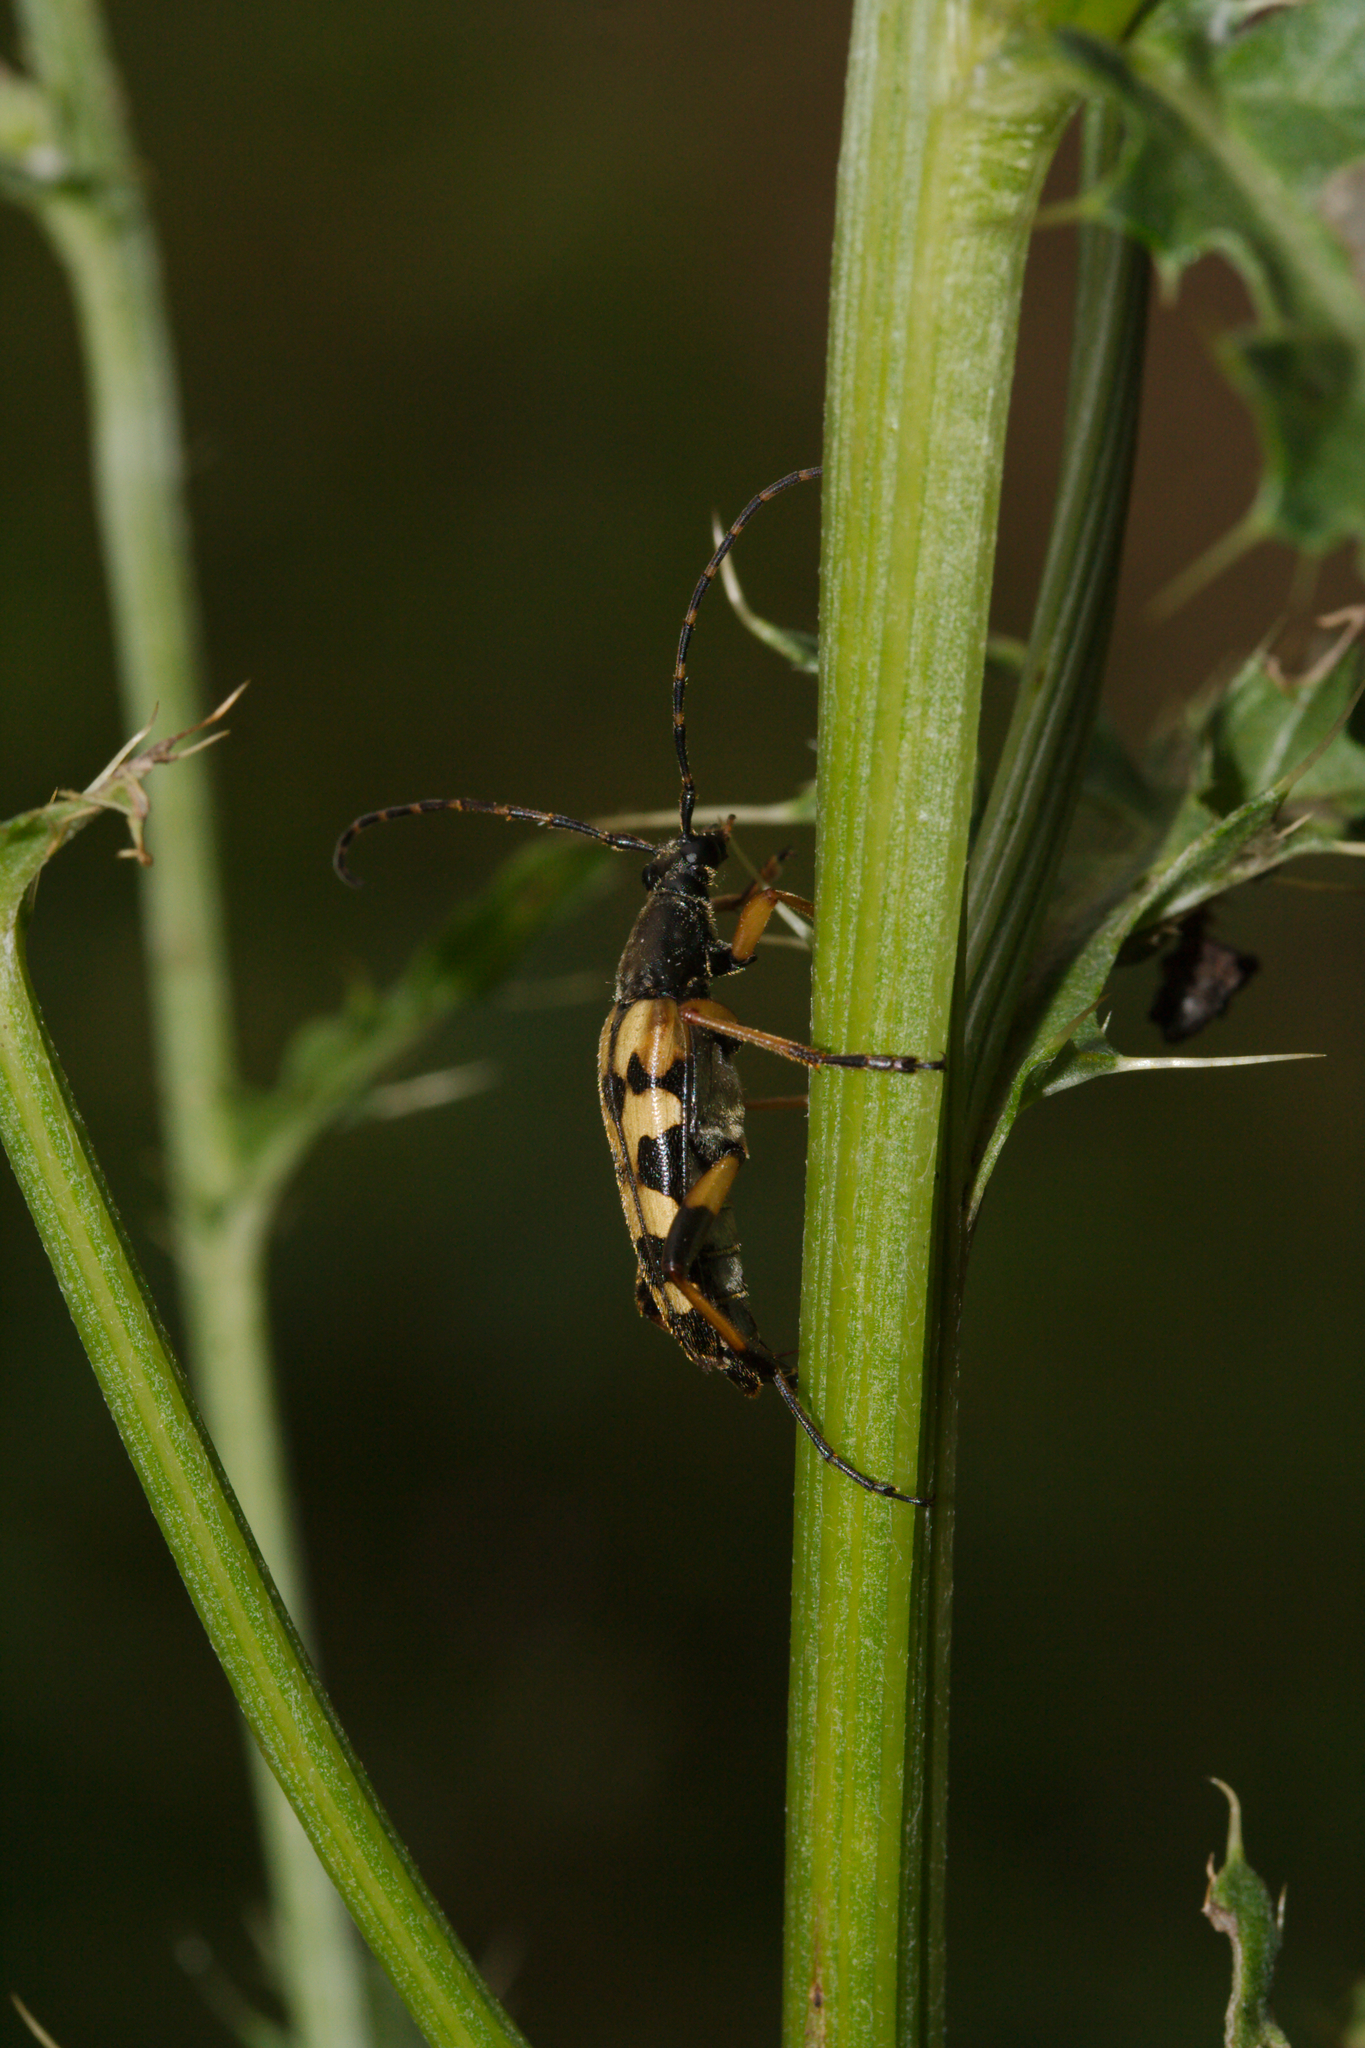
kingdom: Animalia
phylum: Arthropoda
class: Insecta
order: Coleoptera
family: Cerambycidae
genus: Rutpela
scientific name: Rutpela maculata
